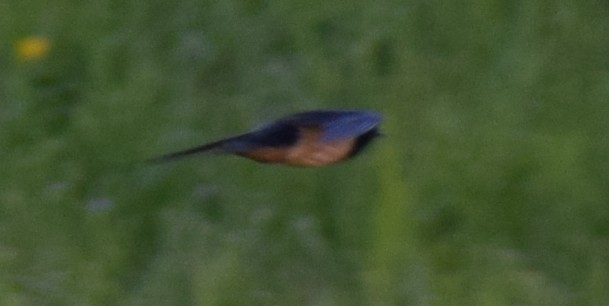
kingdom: Animalia
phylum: Chordata
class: Aves
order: Passeriformes
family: Hirundinidae
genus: Hirundo
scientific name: Hirundo rustica
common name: Barn swallow
